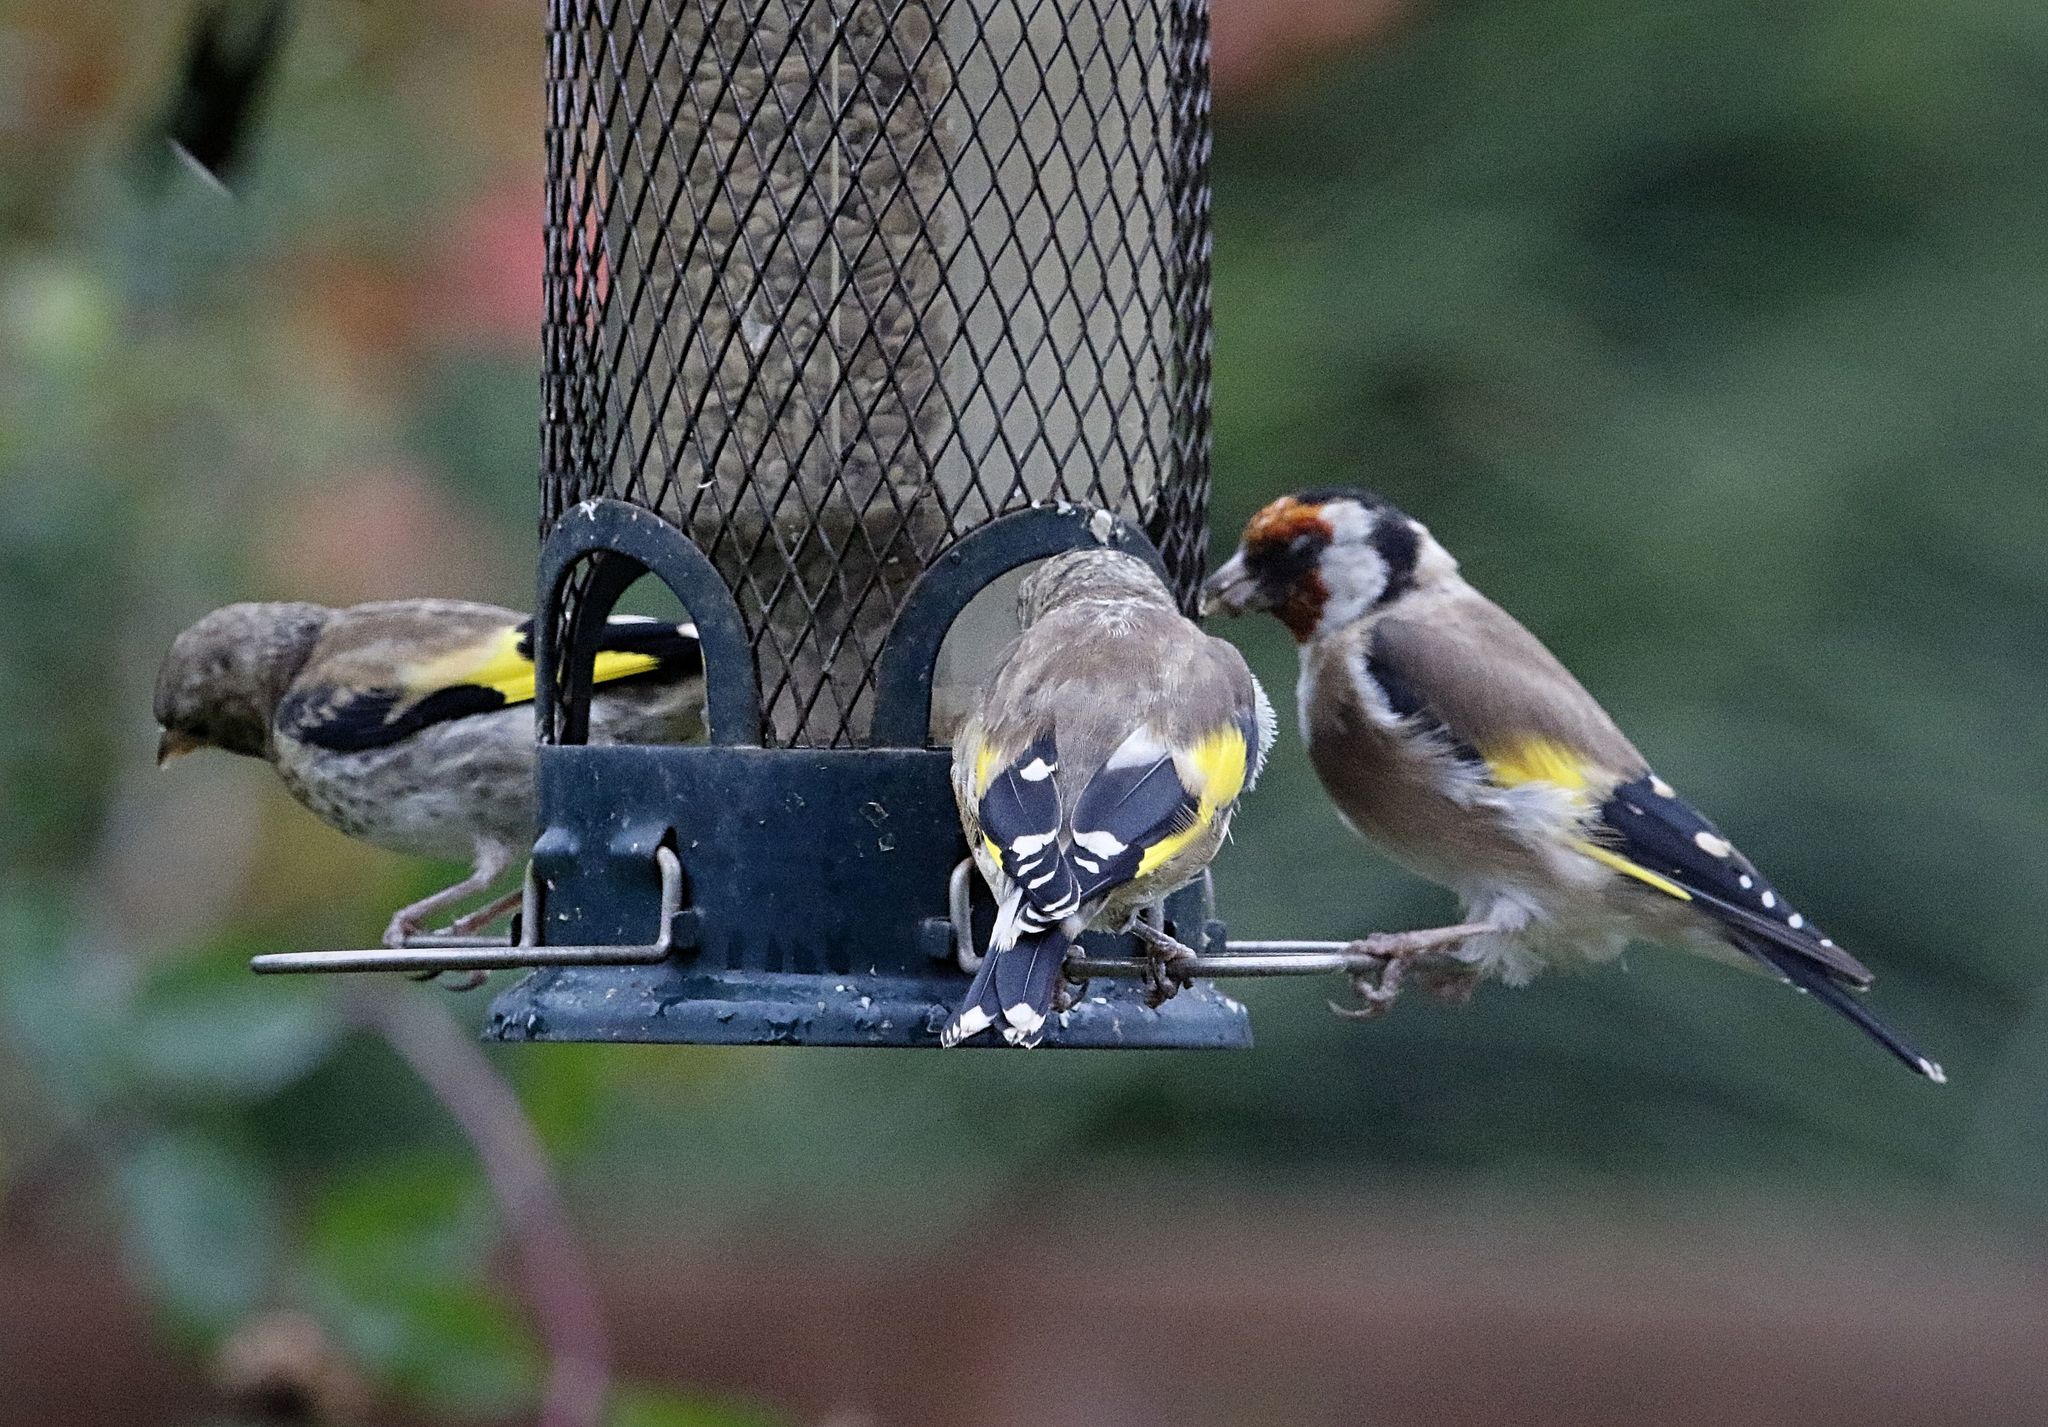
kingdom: Animalia
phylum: Chordata
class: Aves
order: Passeriformes
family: Fringillidae
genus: Carduelis
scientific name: Carduelis carduelis
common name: European goldfinch
